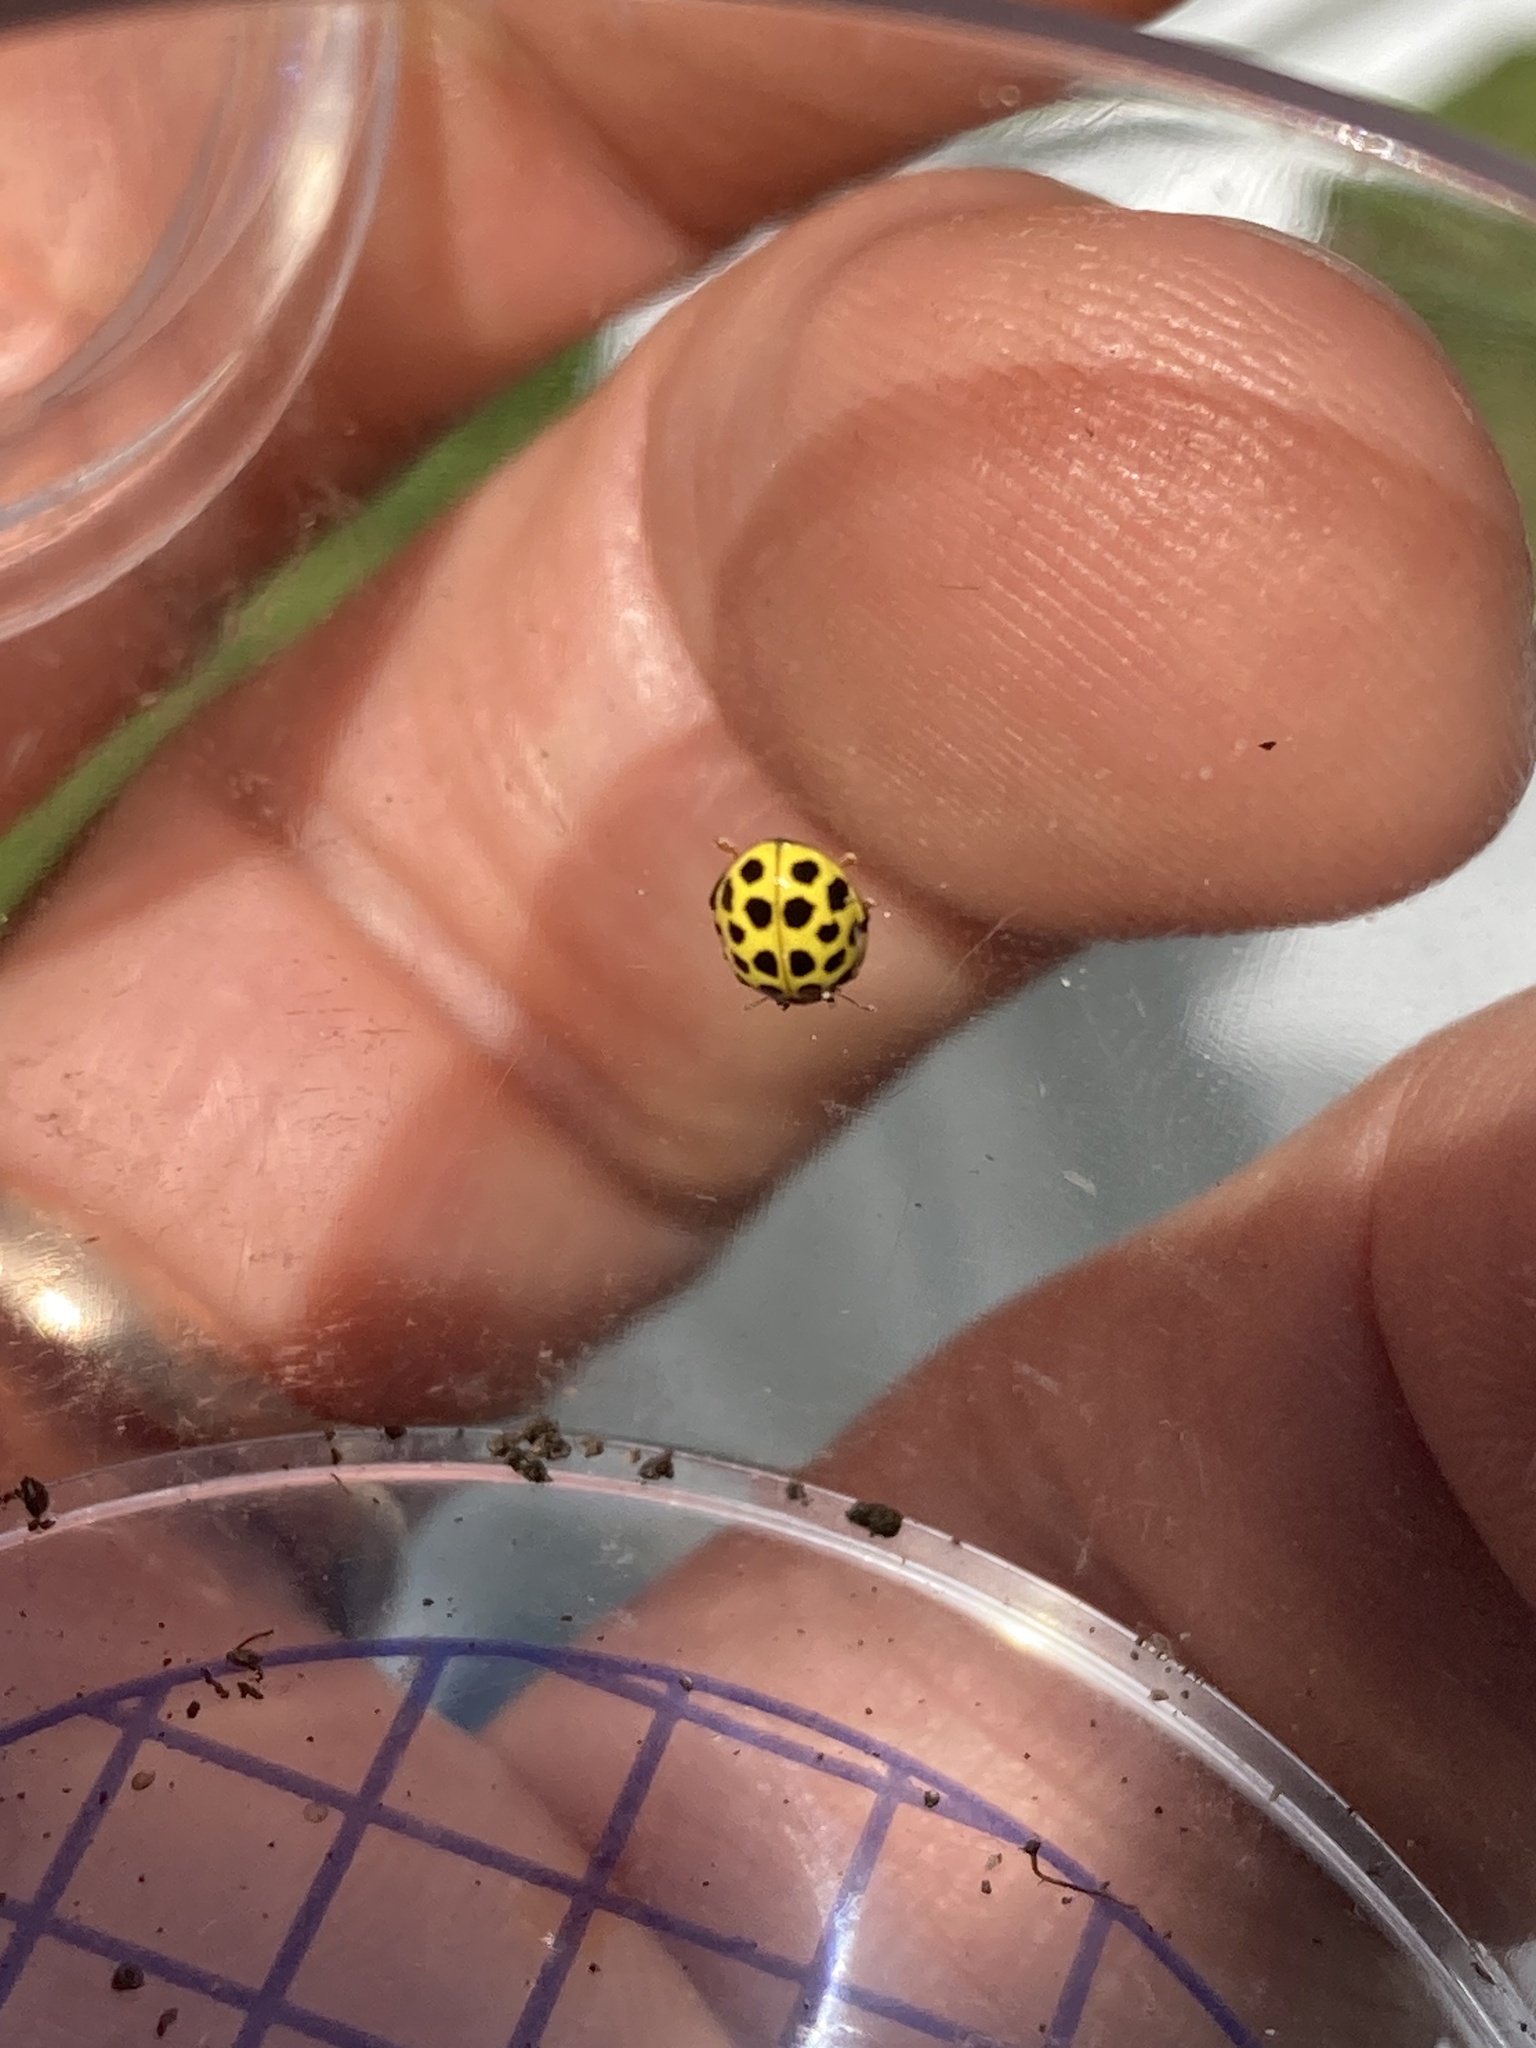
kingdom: Animalia
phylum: Arthropoda
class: Insecta
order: Coleoptera
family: Coccinellidae
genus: Psyllobora
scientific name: Psyllobora vigintiduopunctata
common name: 22-spot ladybird
